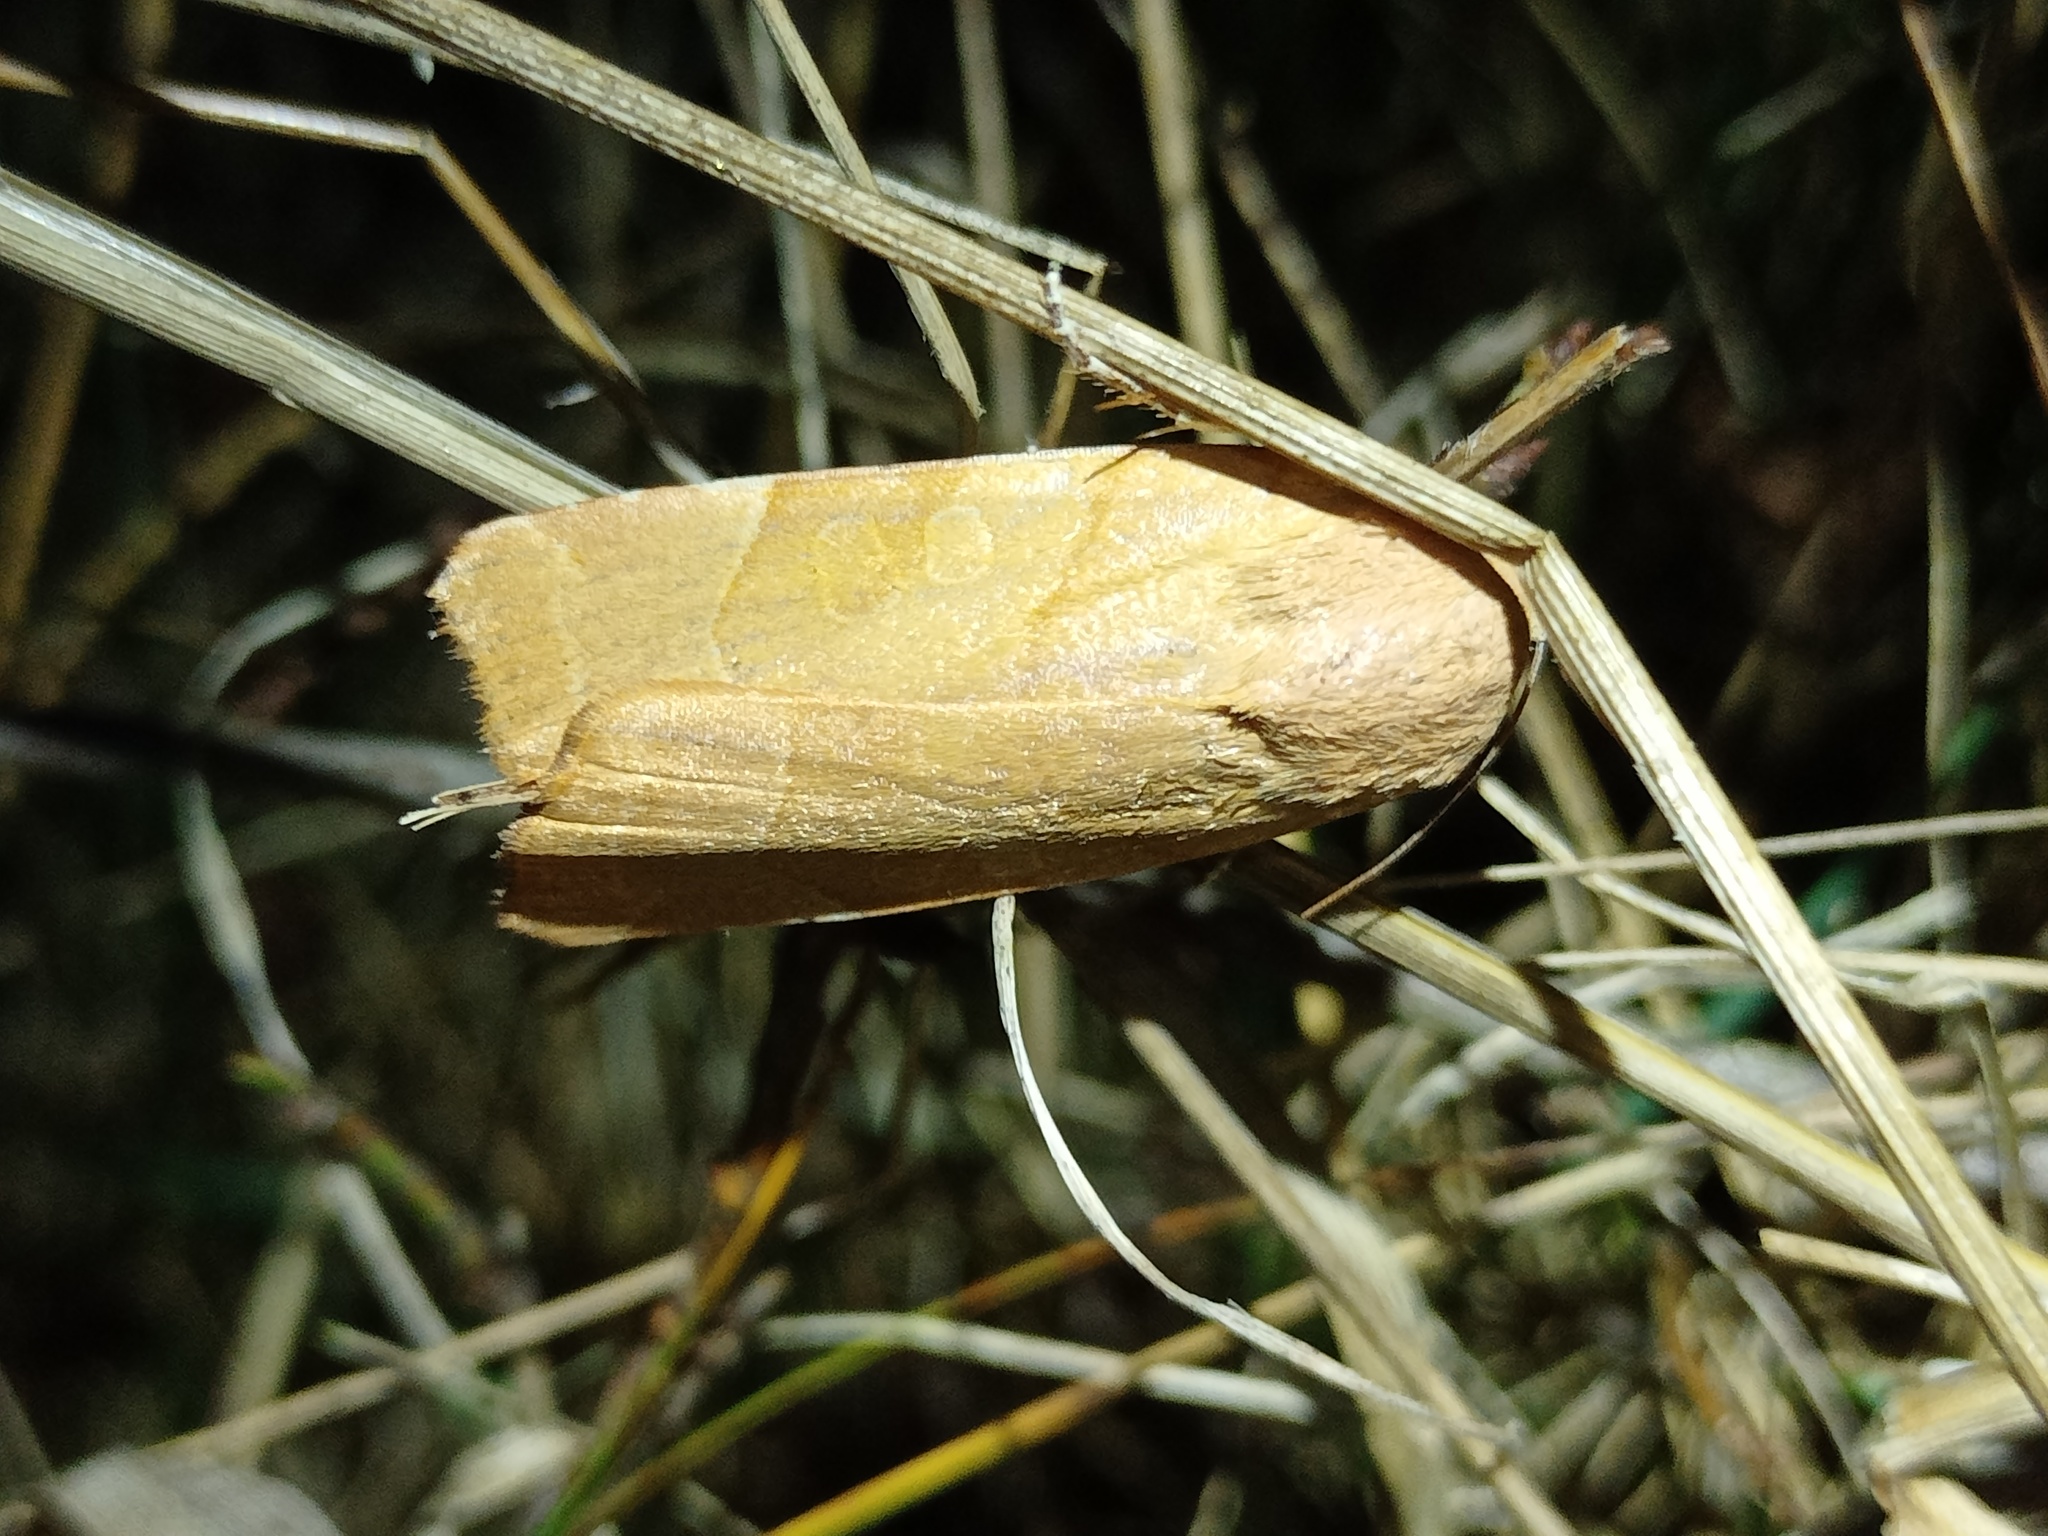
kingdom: Animalia
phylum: Arthropoda
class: Insecta
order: Lepidoptera
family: Noctuidae
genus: Noctua
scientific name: Noctua fimbriata
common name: Broad-bordered yellow underwing
